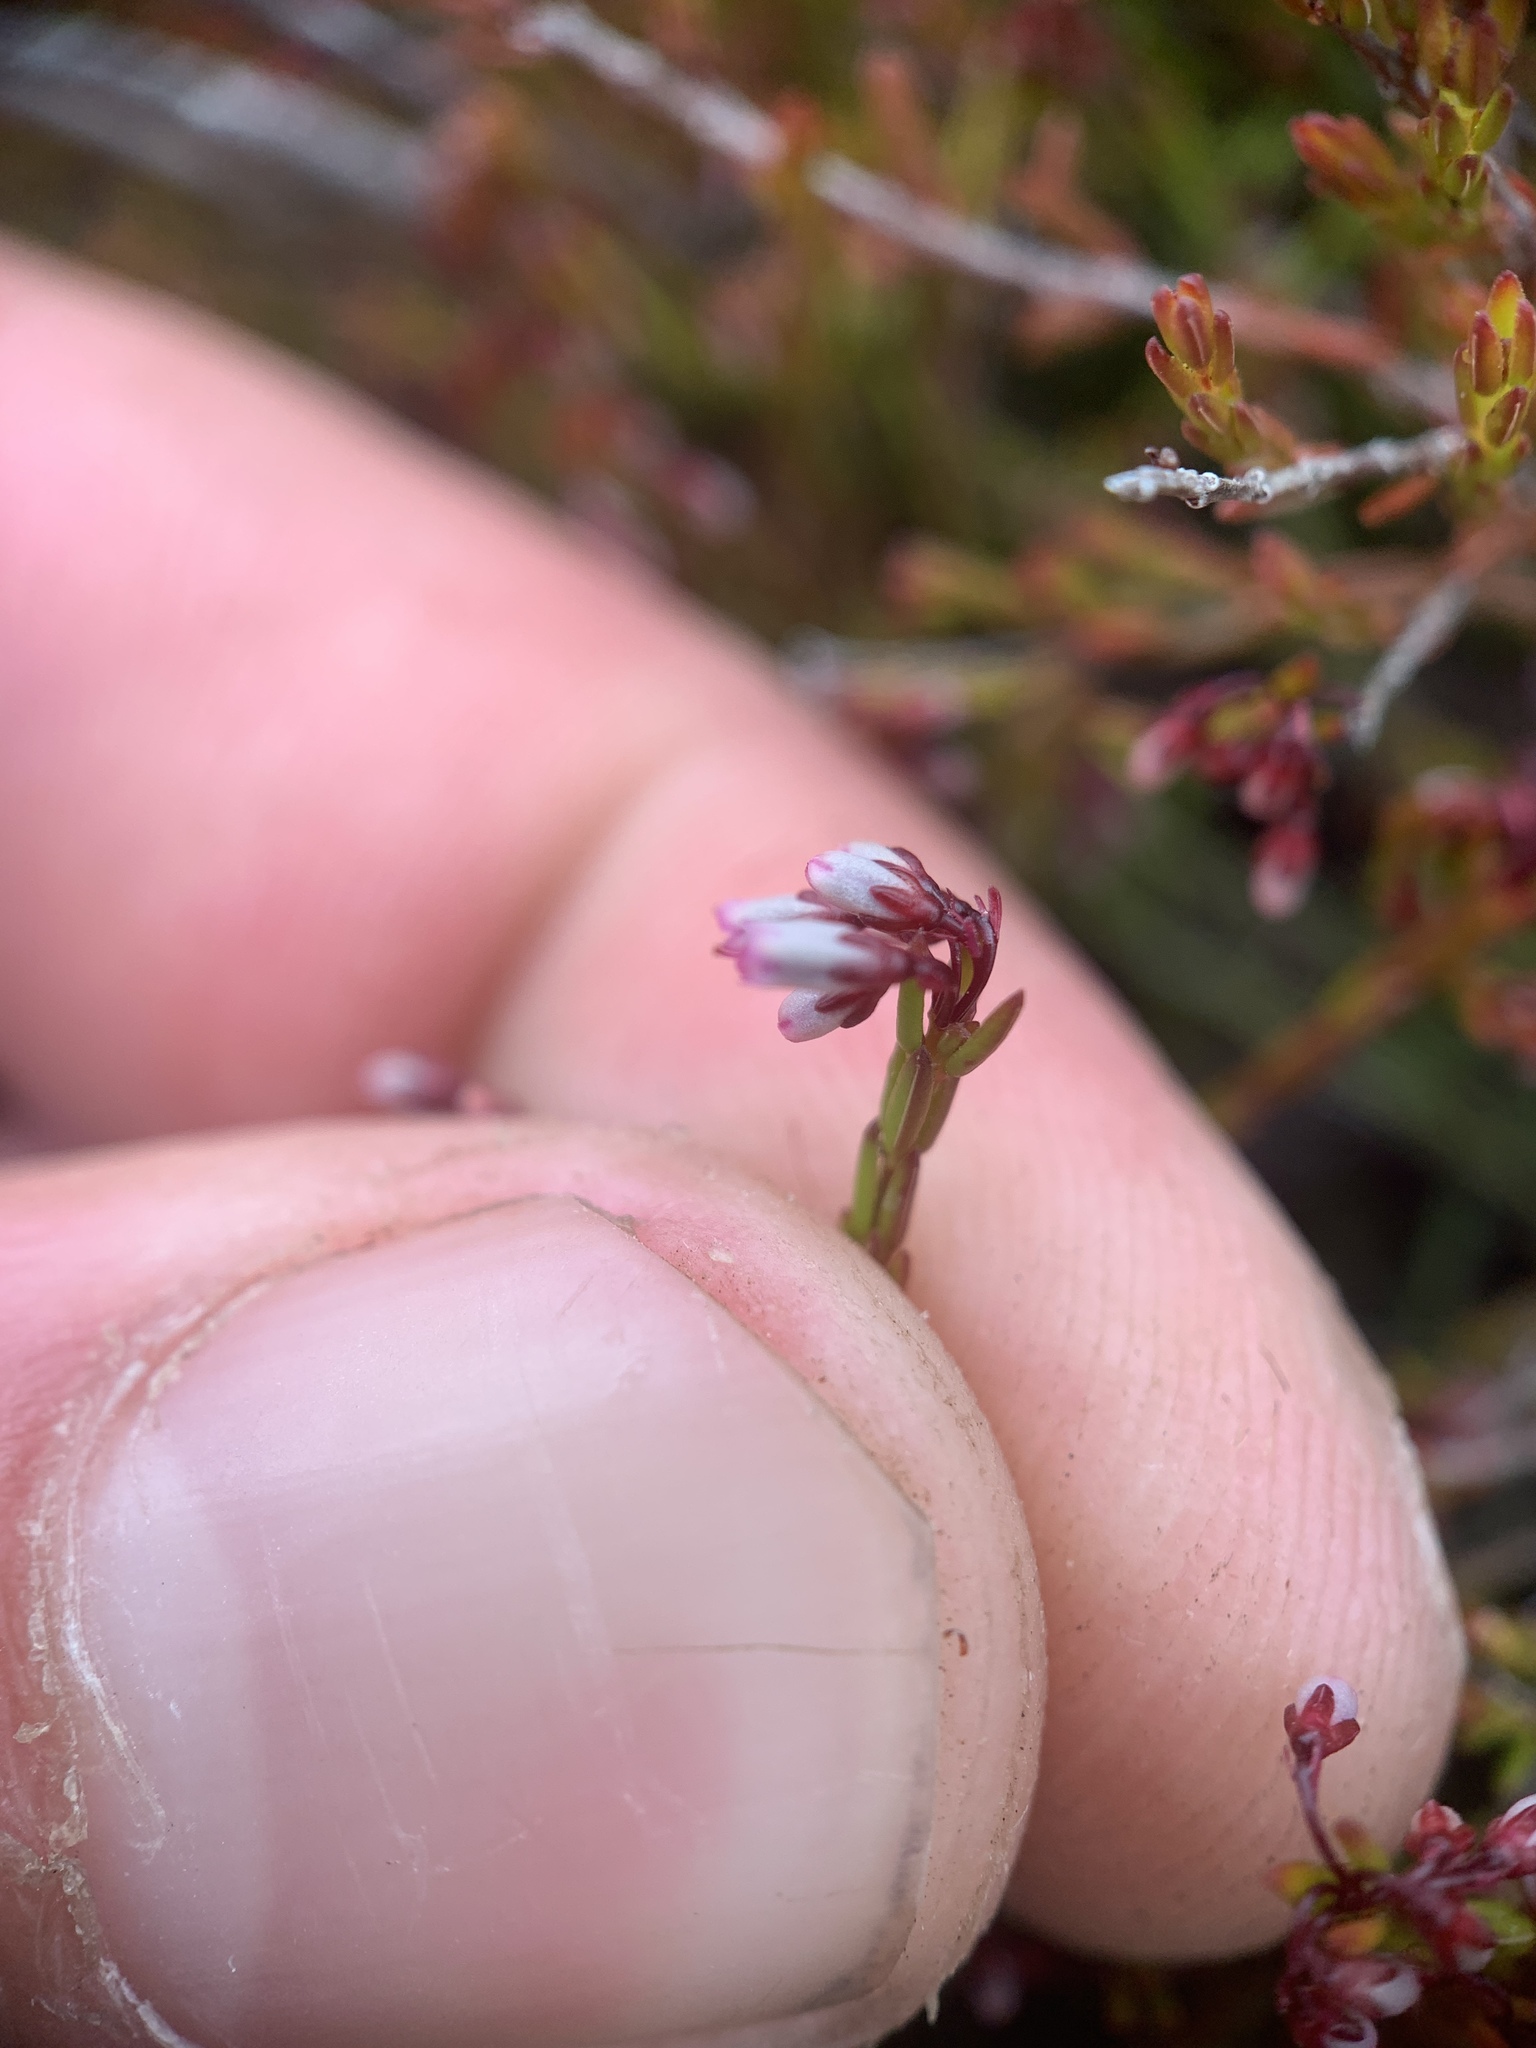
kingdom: Plantae
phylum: Tracheophyta
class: Magnoliopsida
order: Ericales
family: Ericaceae
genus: Erica
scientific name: Erica equisetifolia
